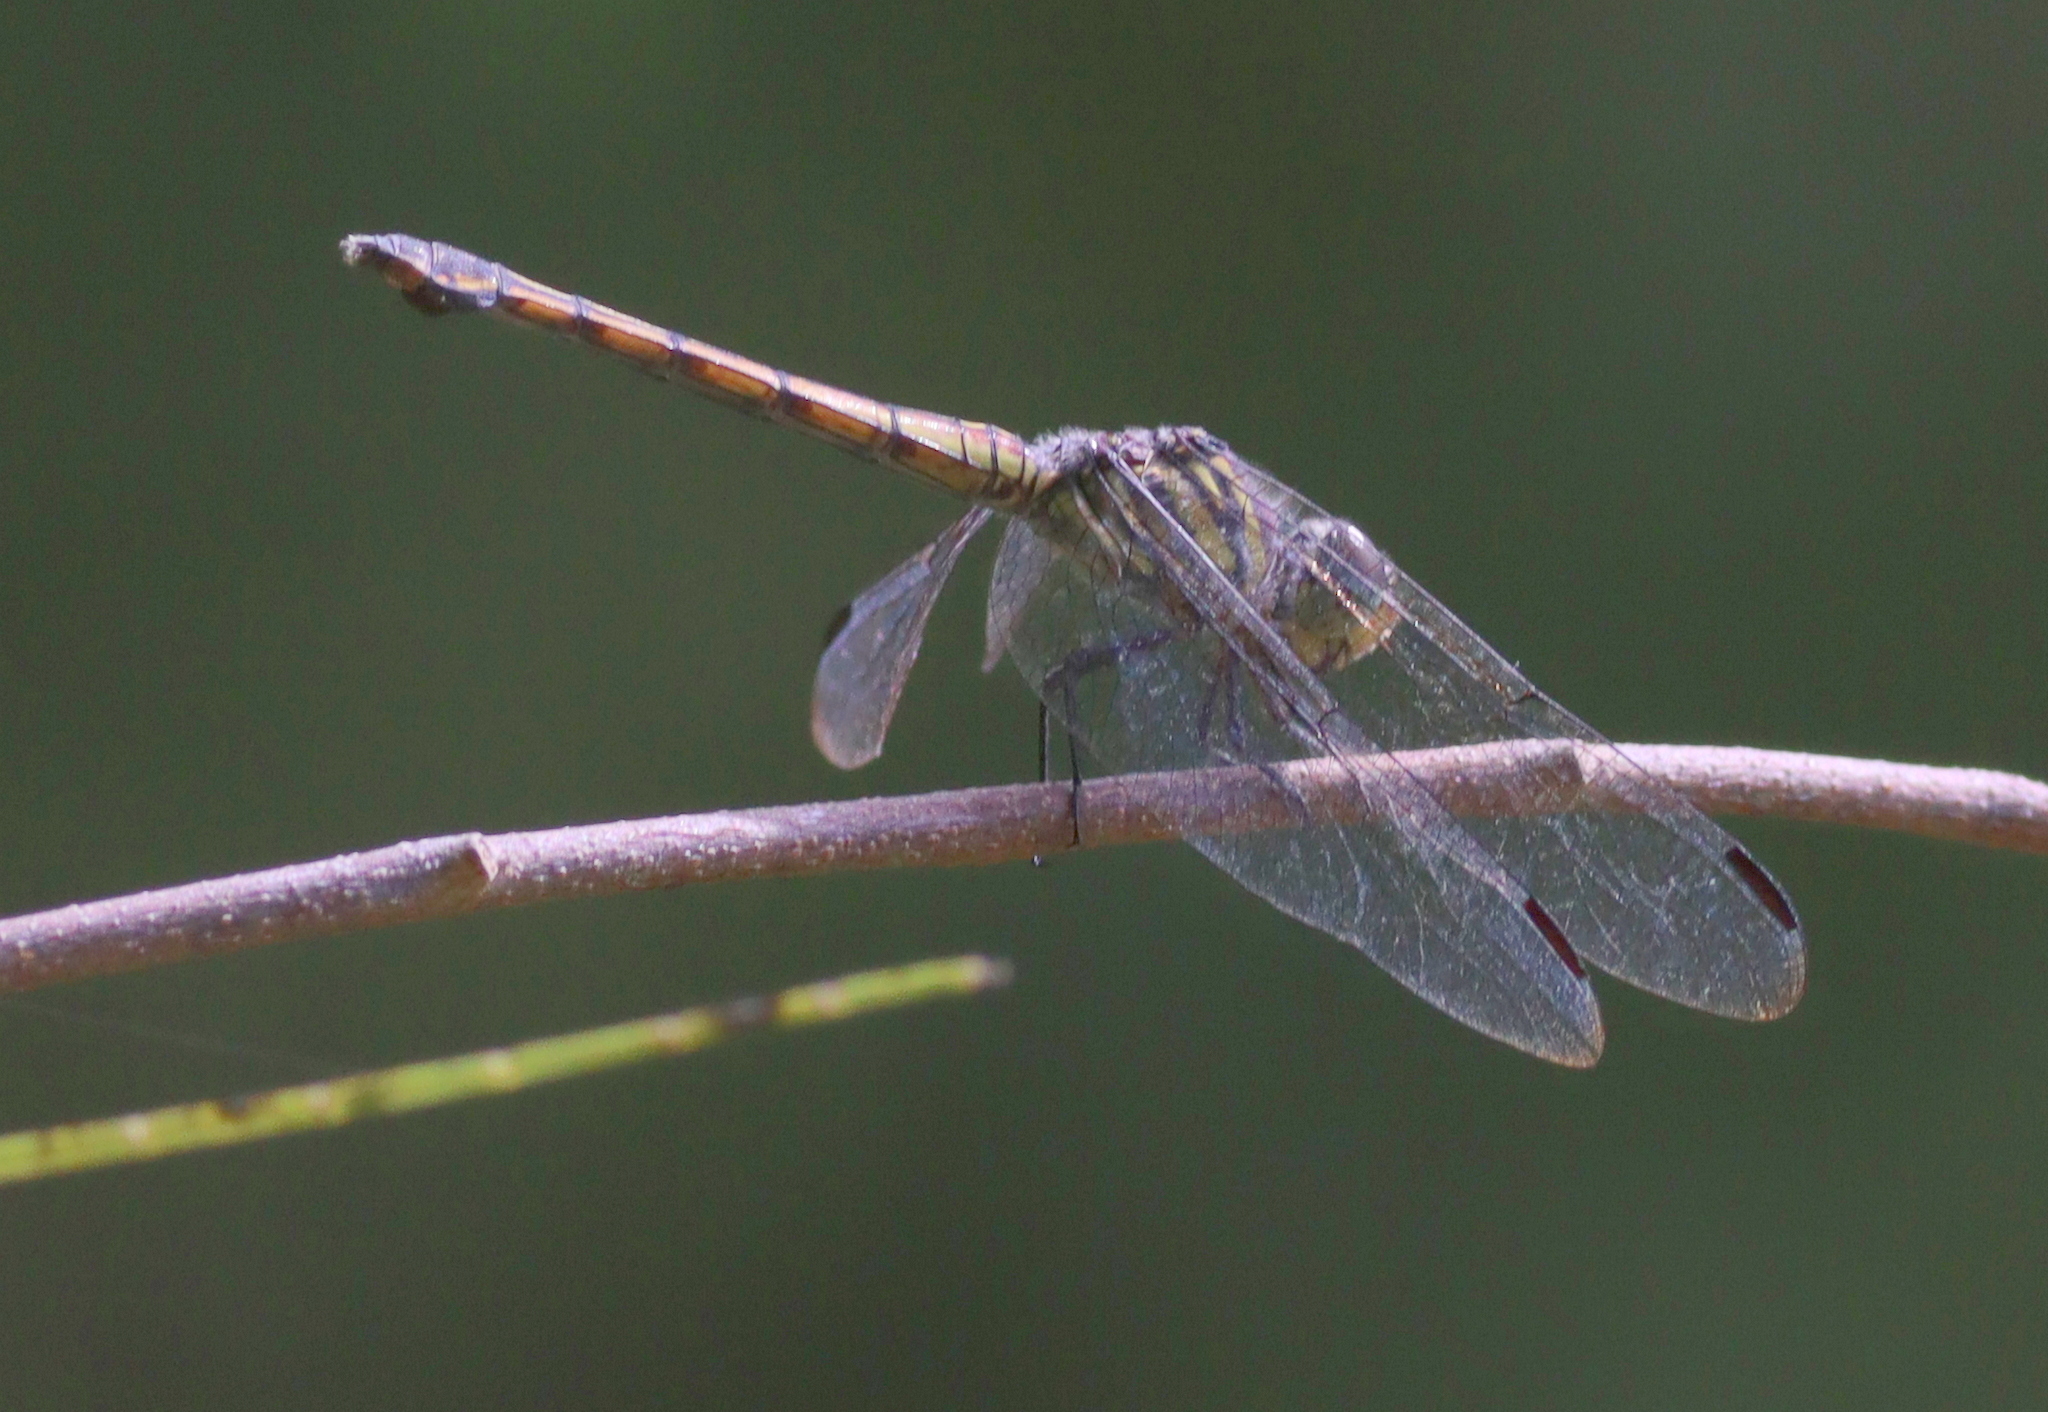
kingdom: Animalia
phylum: Arthropoda
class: Insecta
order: Odonata
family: Libellulidae
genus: Potamarcha
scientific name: Potamarcha congener
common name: Blue chaser
